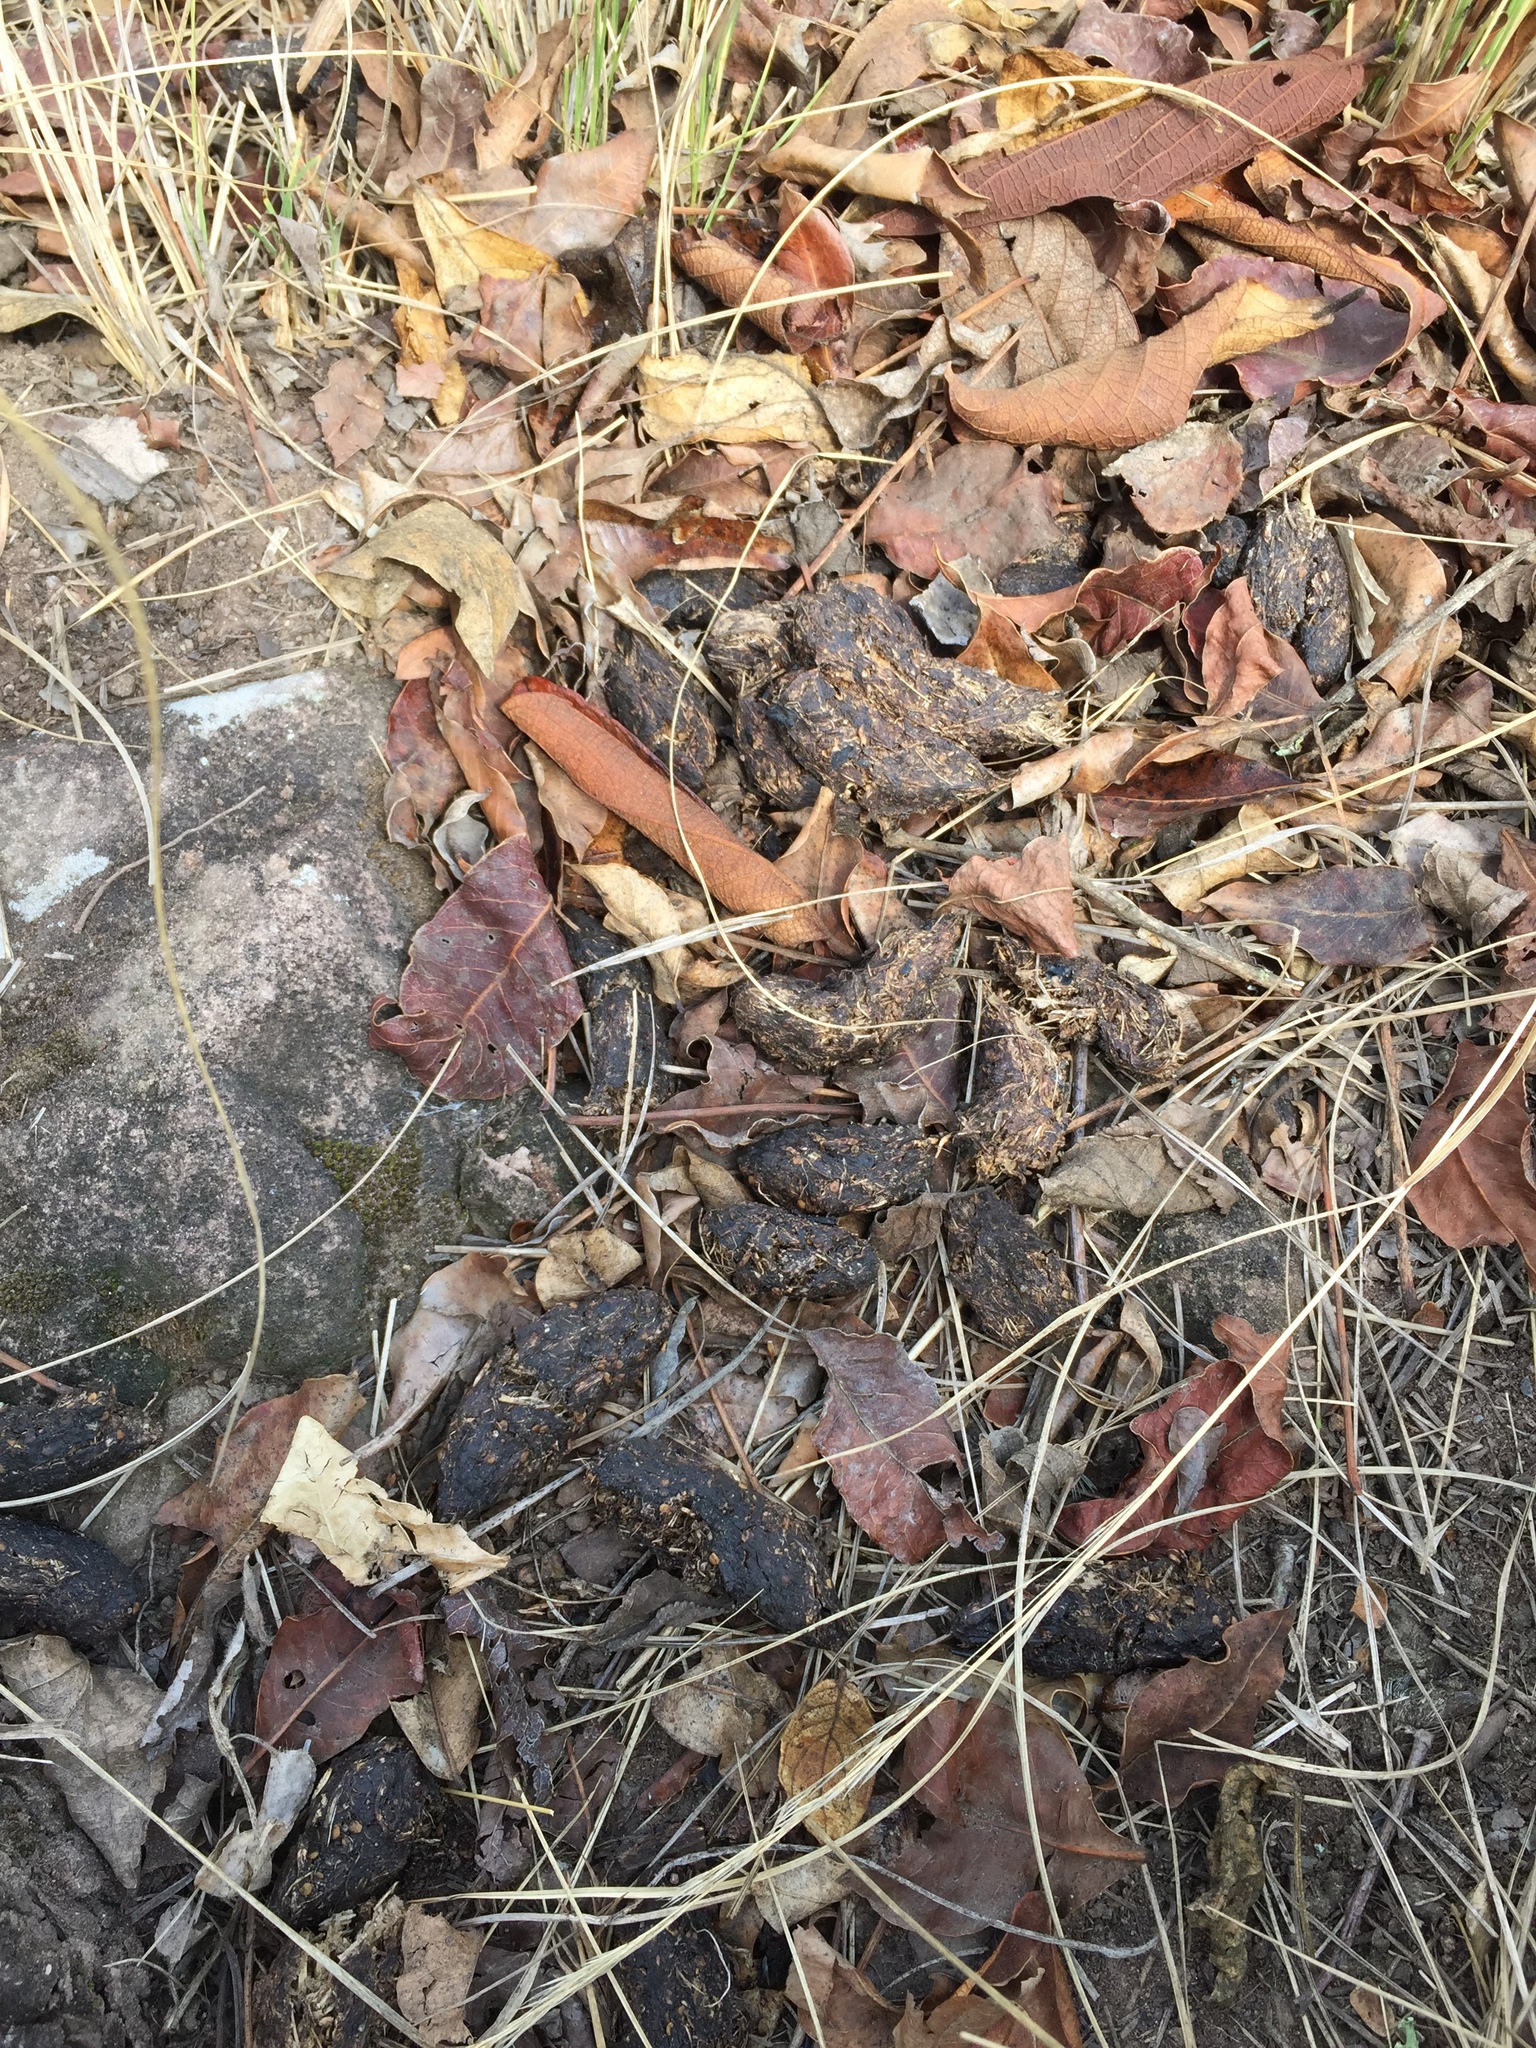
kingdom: Animalia
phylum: Chordata
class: Mammalia
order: Rodentia
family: Hystricidae
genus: Hystrix
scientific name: Hystrix africaeaustralis
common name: Cape porcupine
